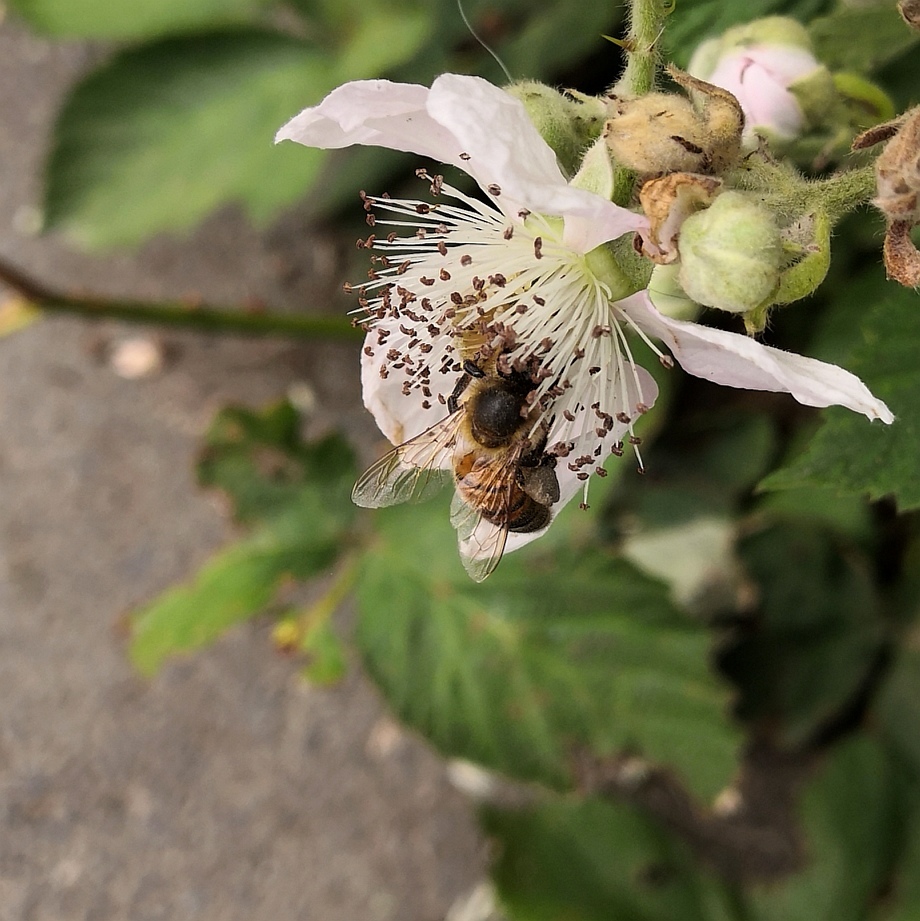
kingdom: Animalia
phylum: Arthropoda
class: Insecta
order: Hymenoptera
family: Apidae
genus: Apis
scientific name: Apis mellifera
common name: Honey bee
